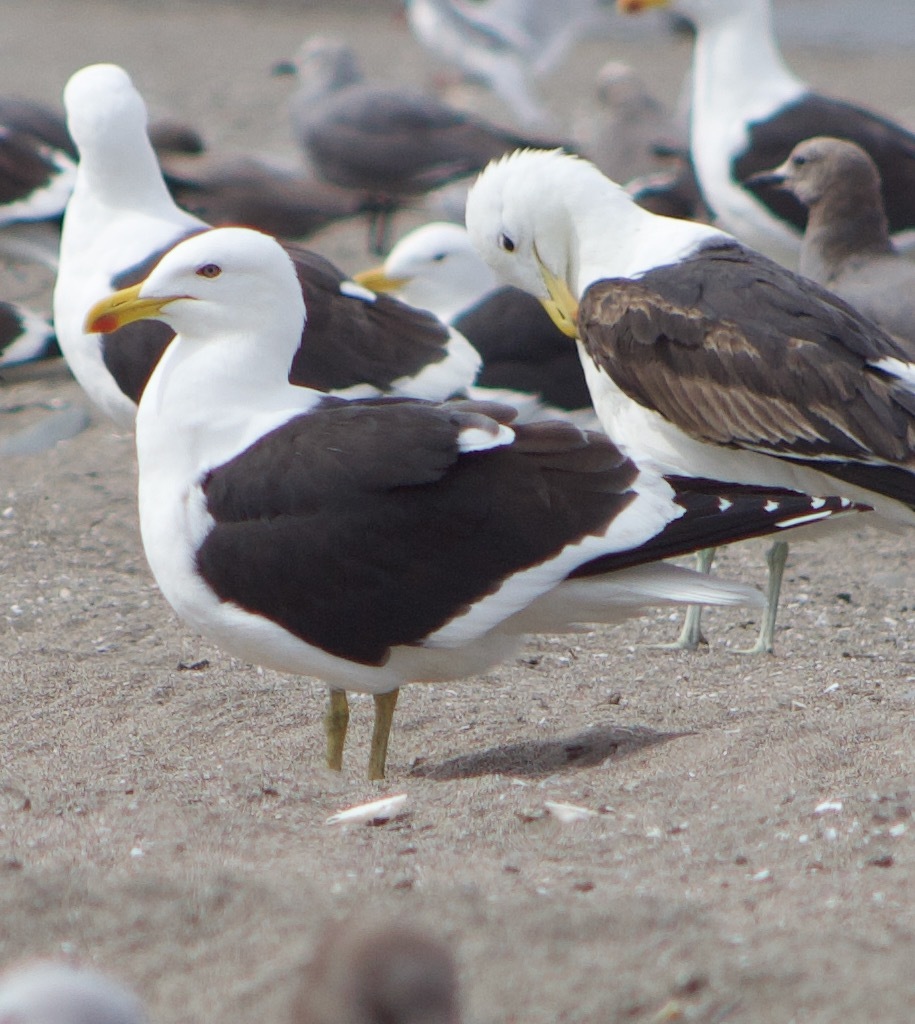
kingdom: Animalia
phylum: Chordata
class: Aves
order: Charadriiformes
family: Laridae
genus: Larus
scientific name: Larus dominicanus
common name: Kelp gull
